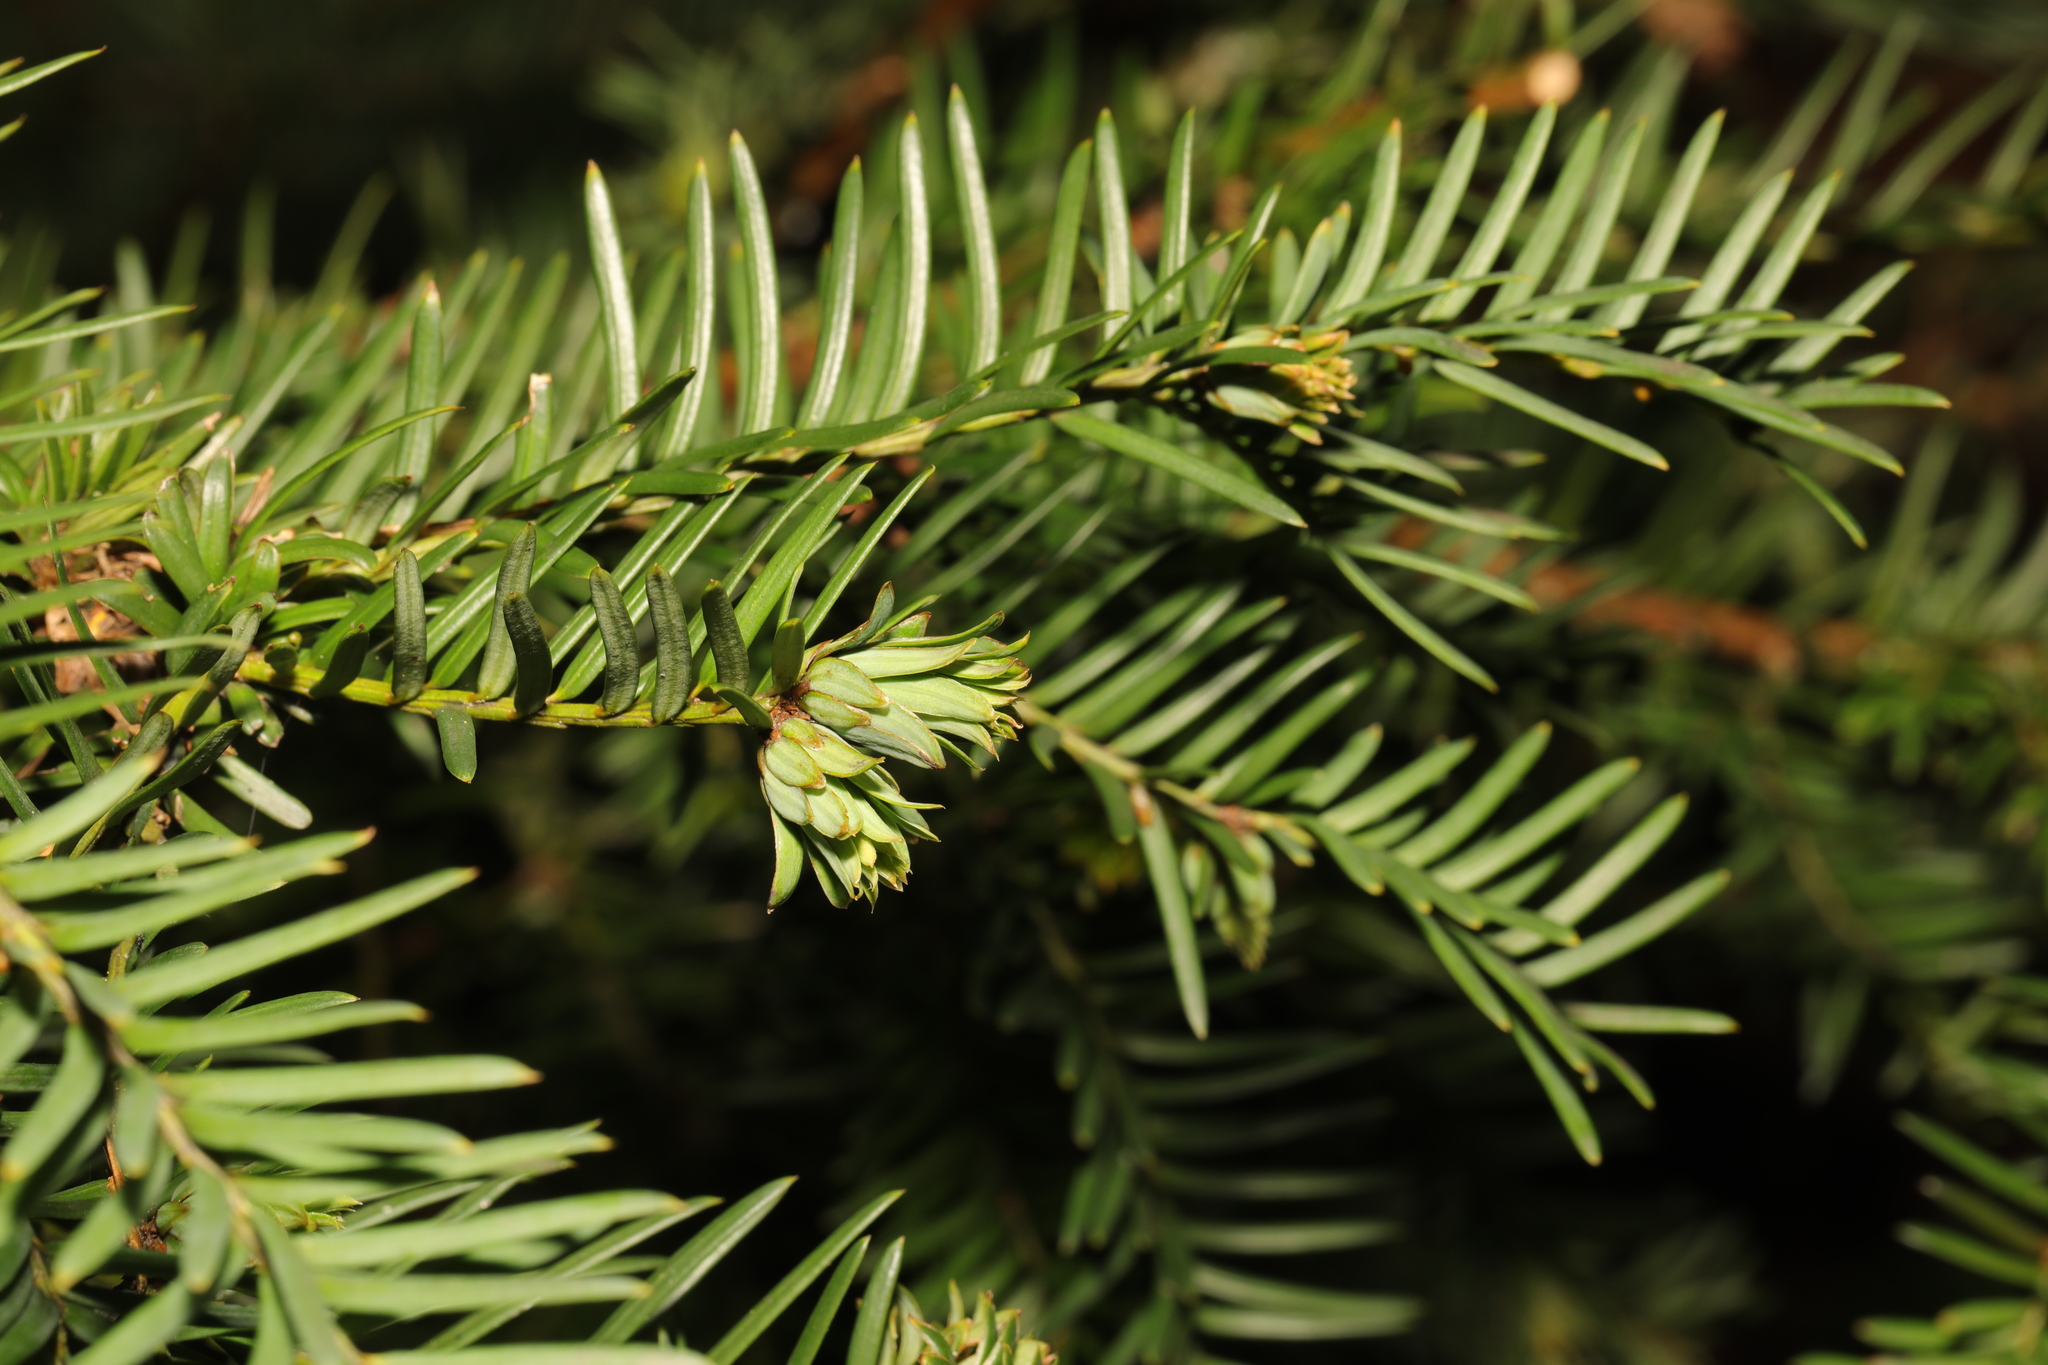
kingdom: Plantae
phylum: Tracheophyta
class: Pinopsida
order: Pinales
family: Taxaceae
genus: Taxus
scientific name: Taxus baccata
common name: Yew
